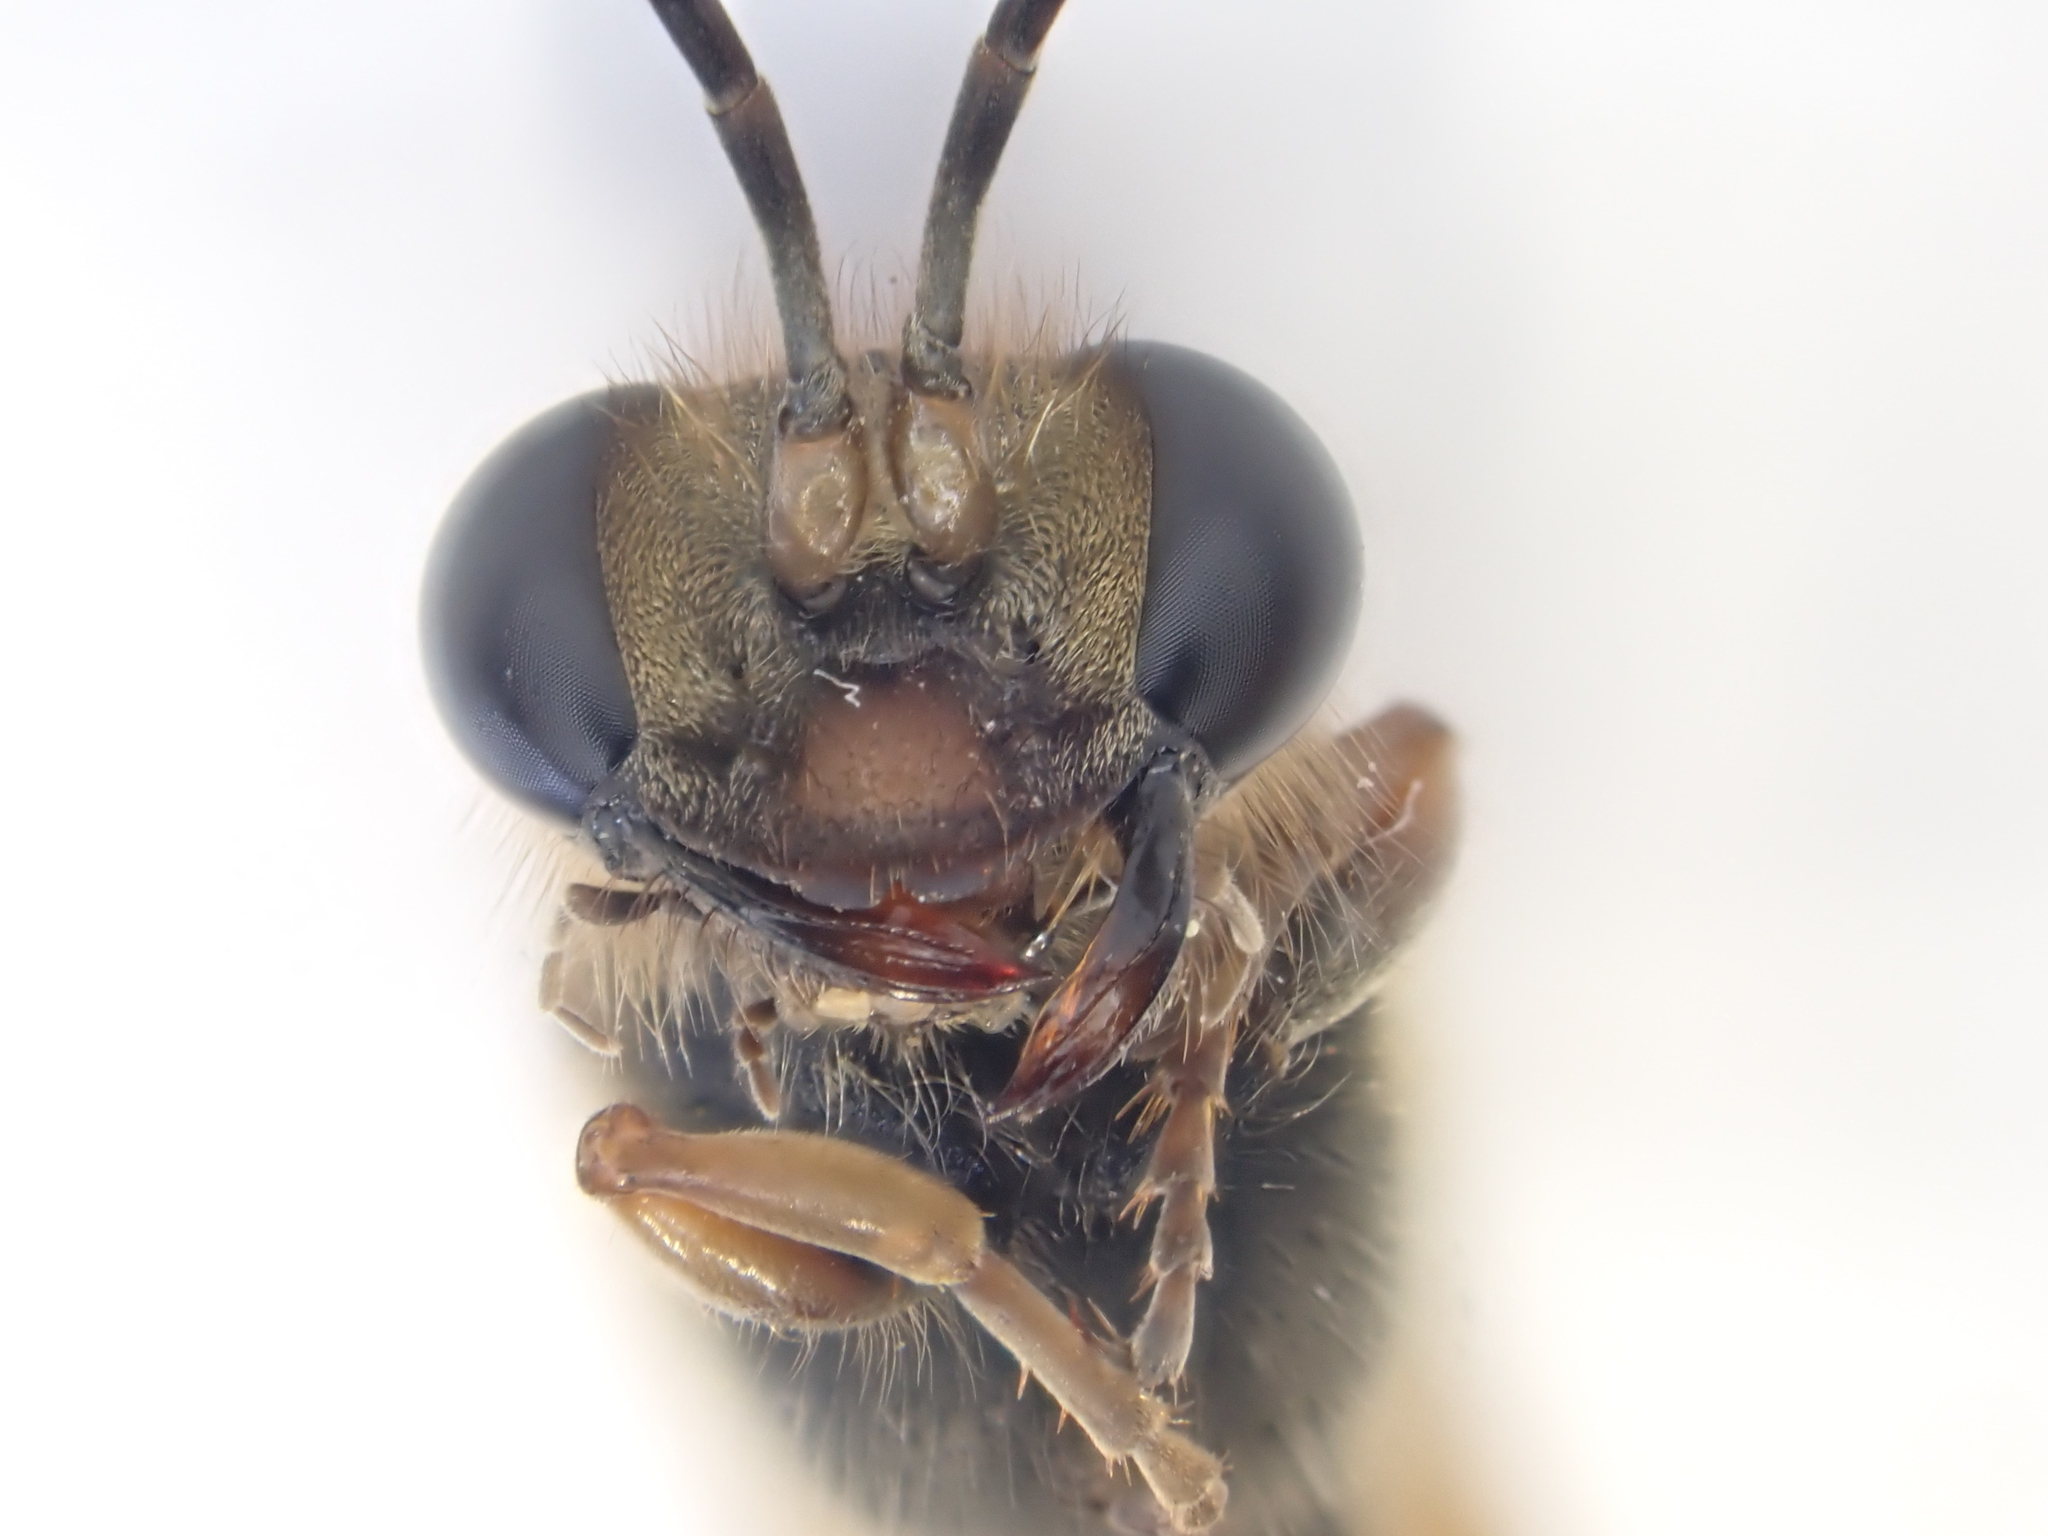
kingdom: Animalia
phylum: Arthropoda
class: Insecta
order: Hymenoptera
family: Sphecidae
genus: Sceliphron
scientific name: Sceliphron curvatum
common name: Pèlopèe
